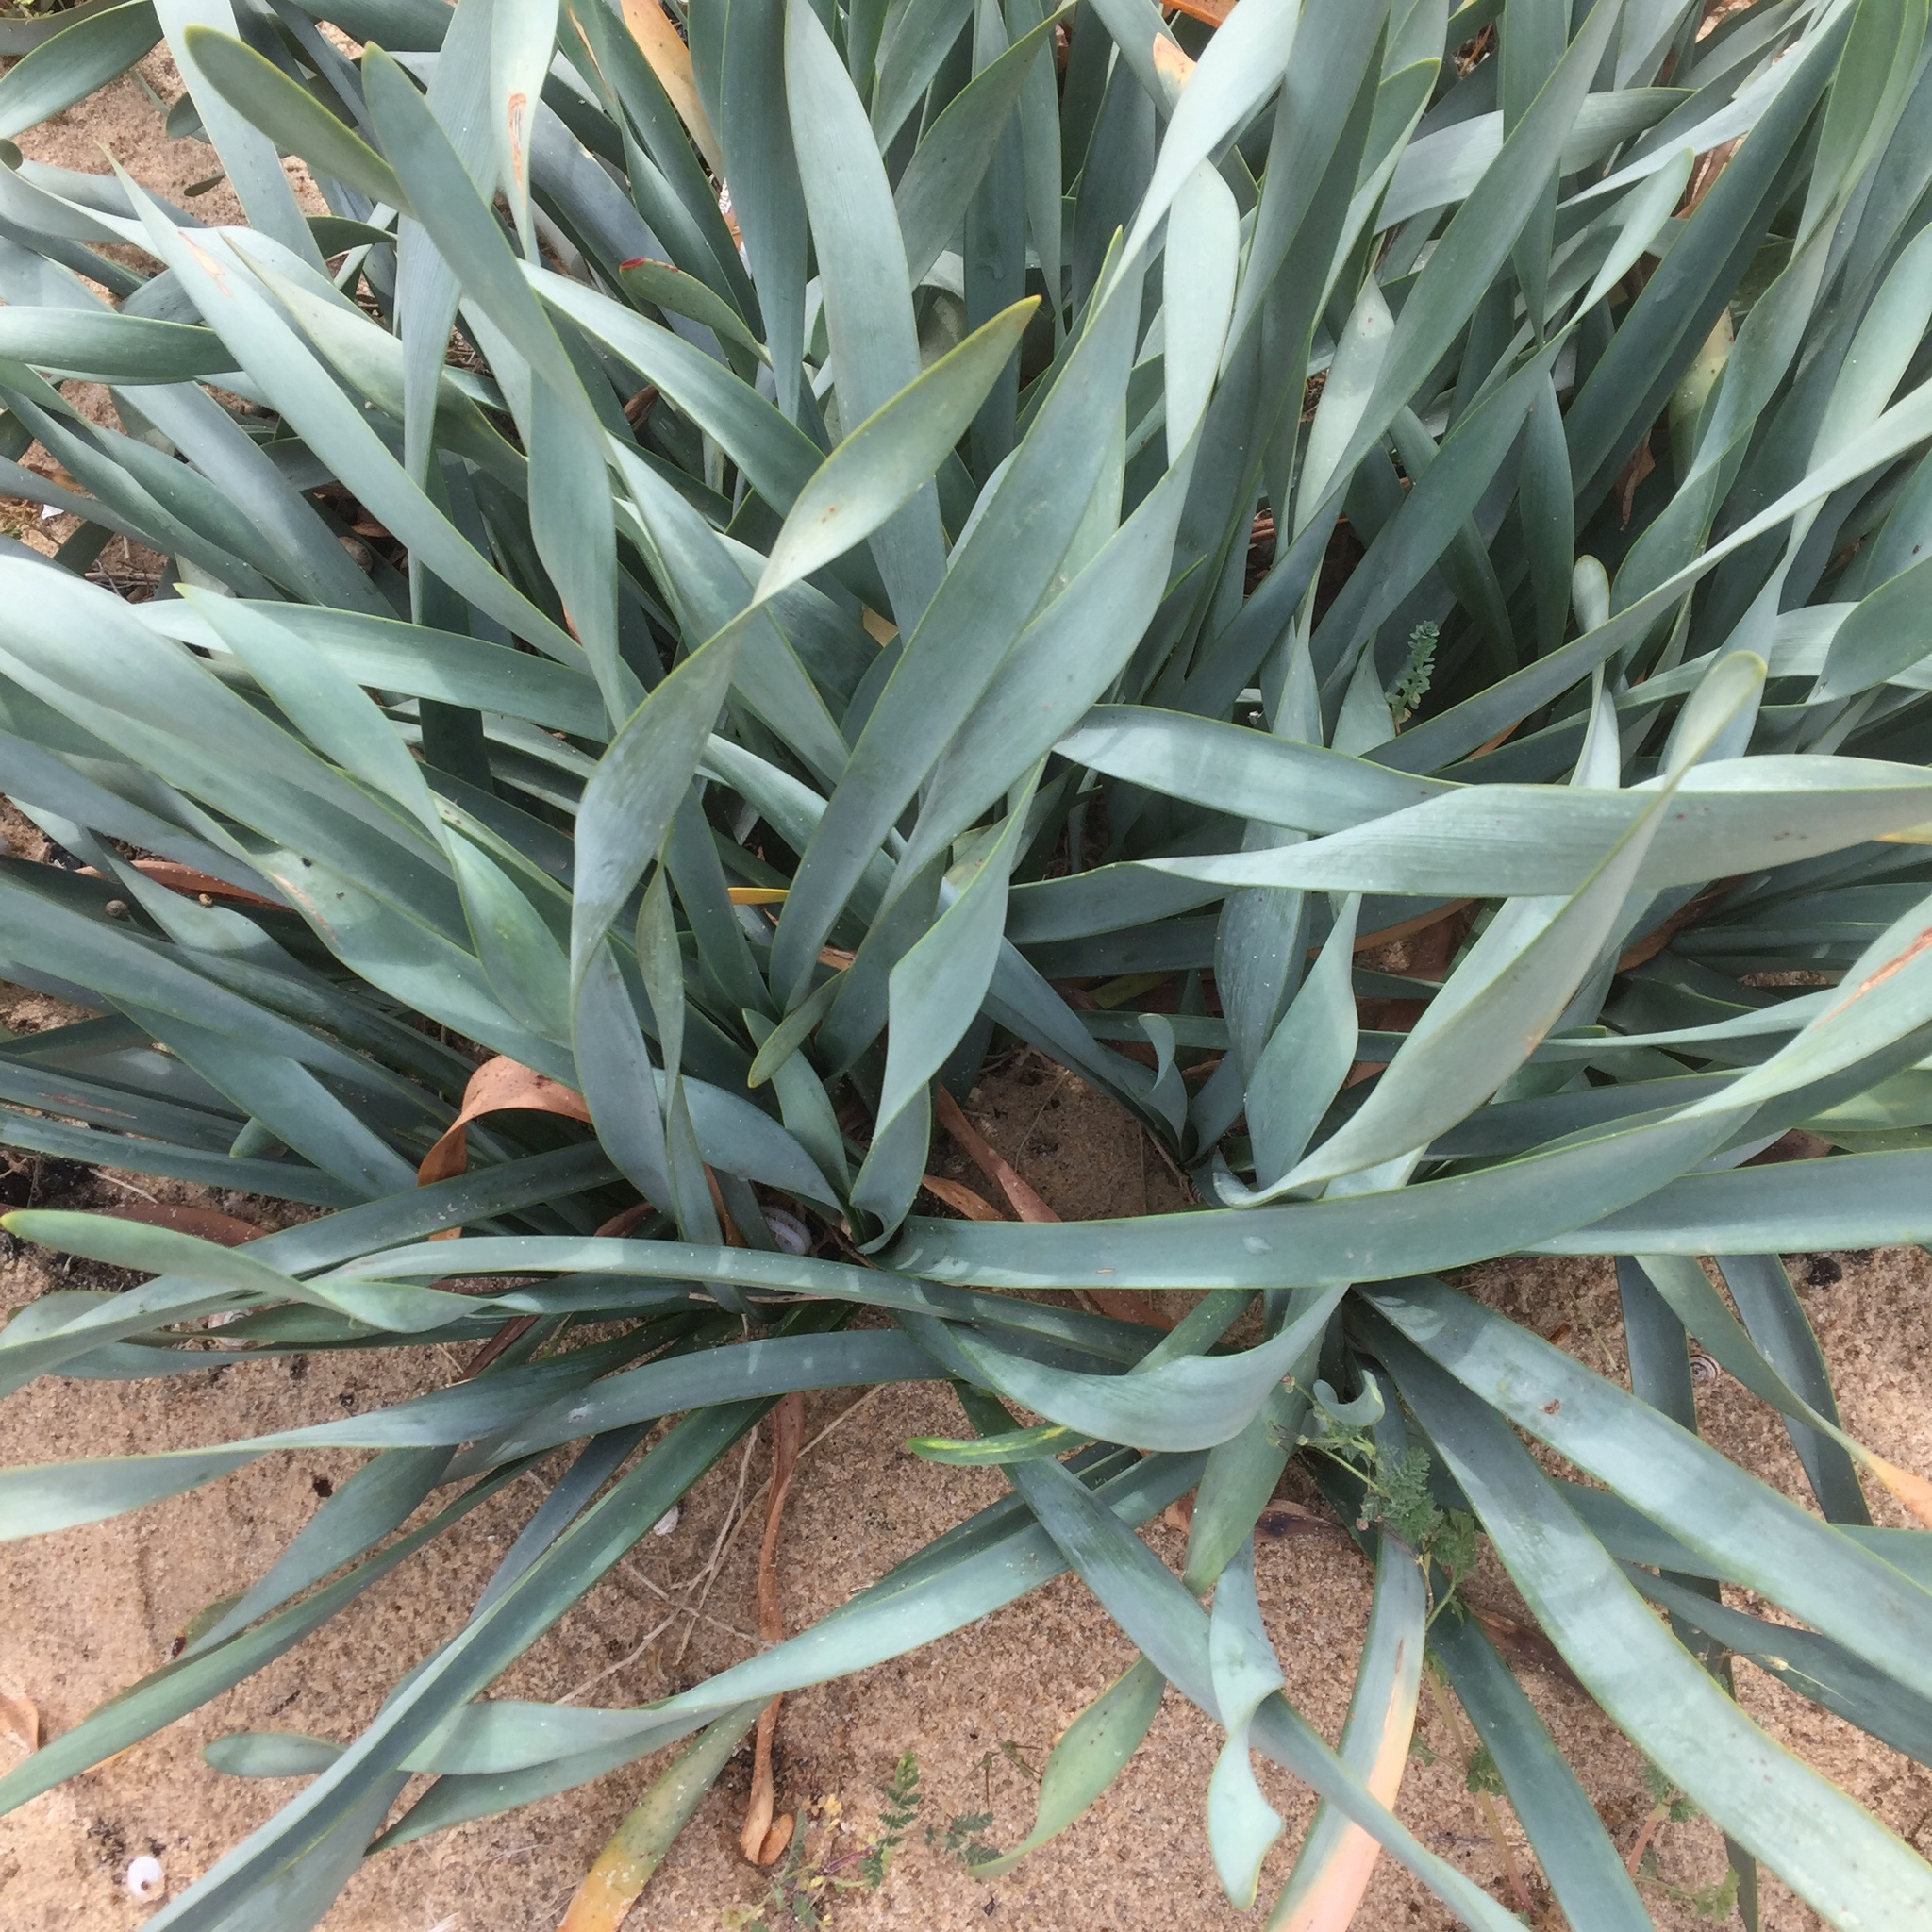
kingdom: Plantae
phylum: Tracheophyta
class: Liliopsida
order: Asparagales
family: Amaryllidaceae
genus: Pancratium
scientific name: Pancratium maritimum
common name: Sea-daffodil
